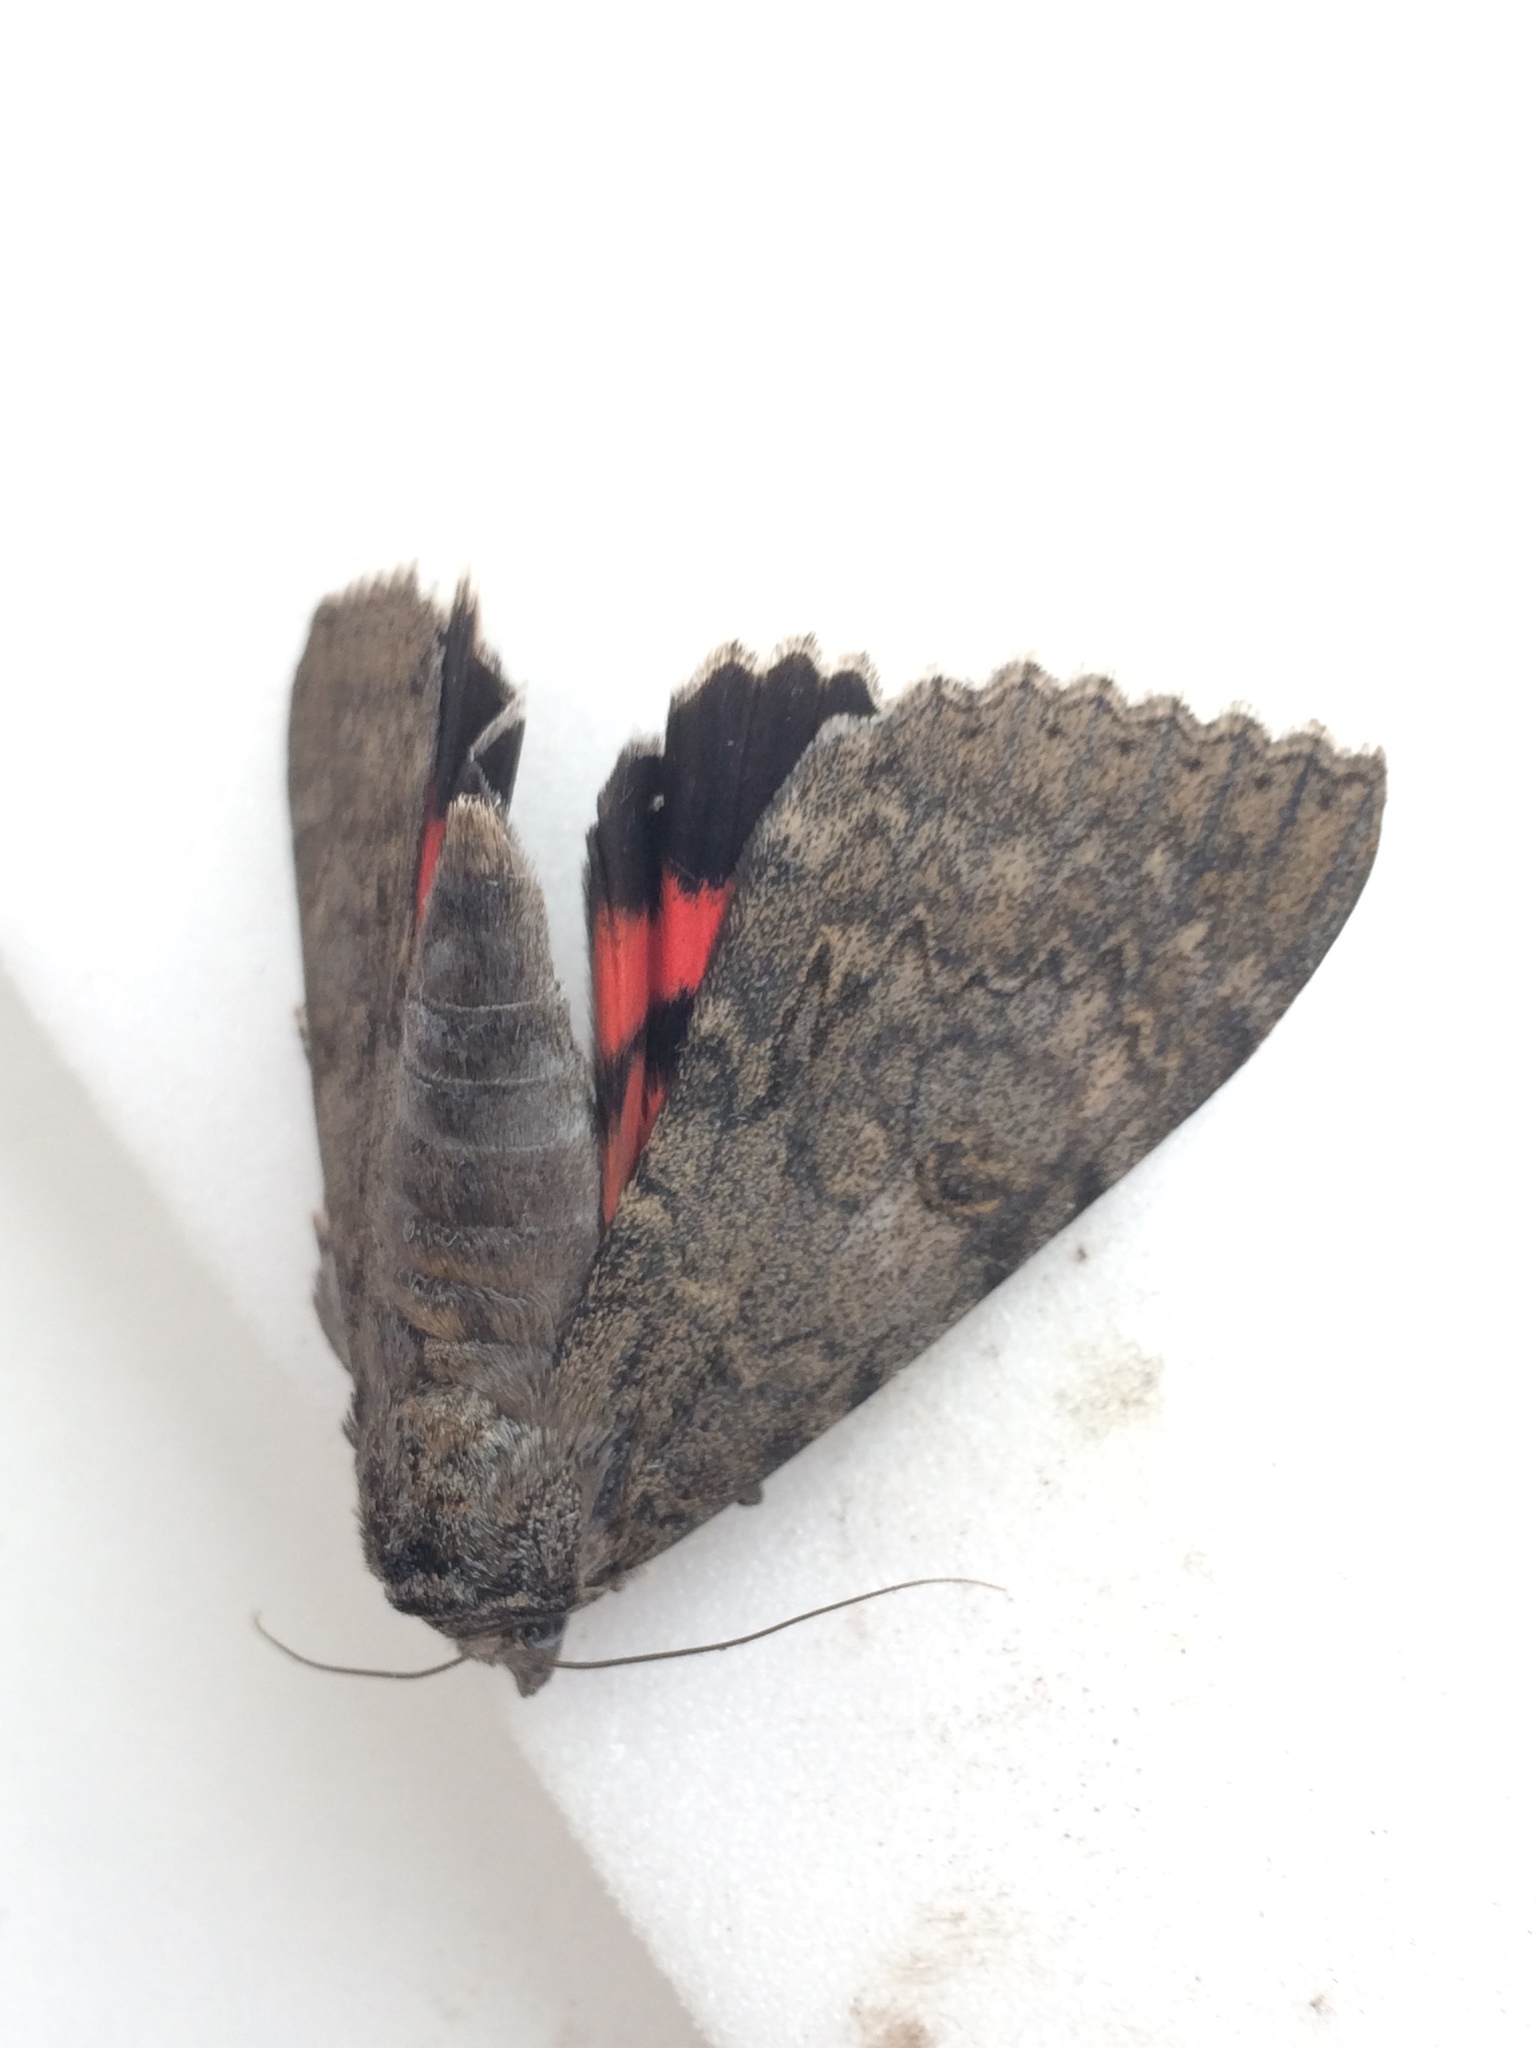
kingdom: Animalia
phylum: Arthropoda
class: Insecta
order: Lepidoptera
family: Erebidae
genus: Catocala
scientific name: Catocala nupta
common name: Red underwing
